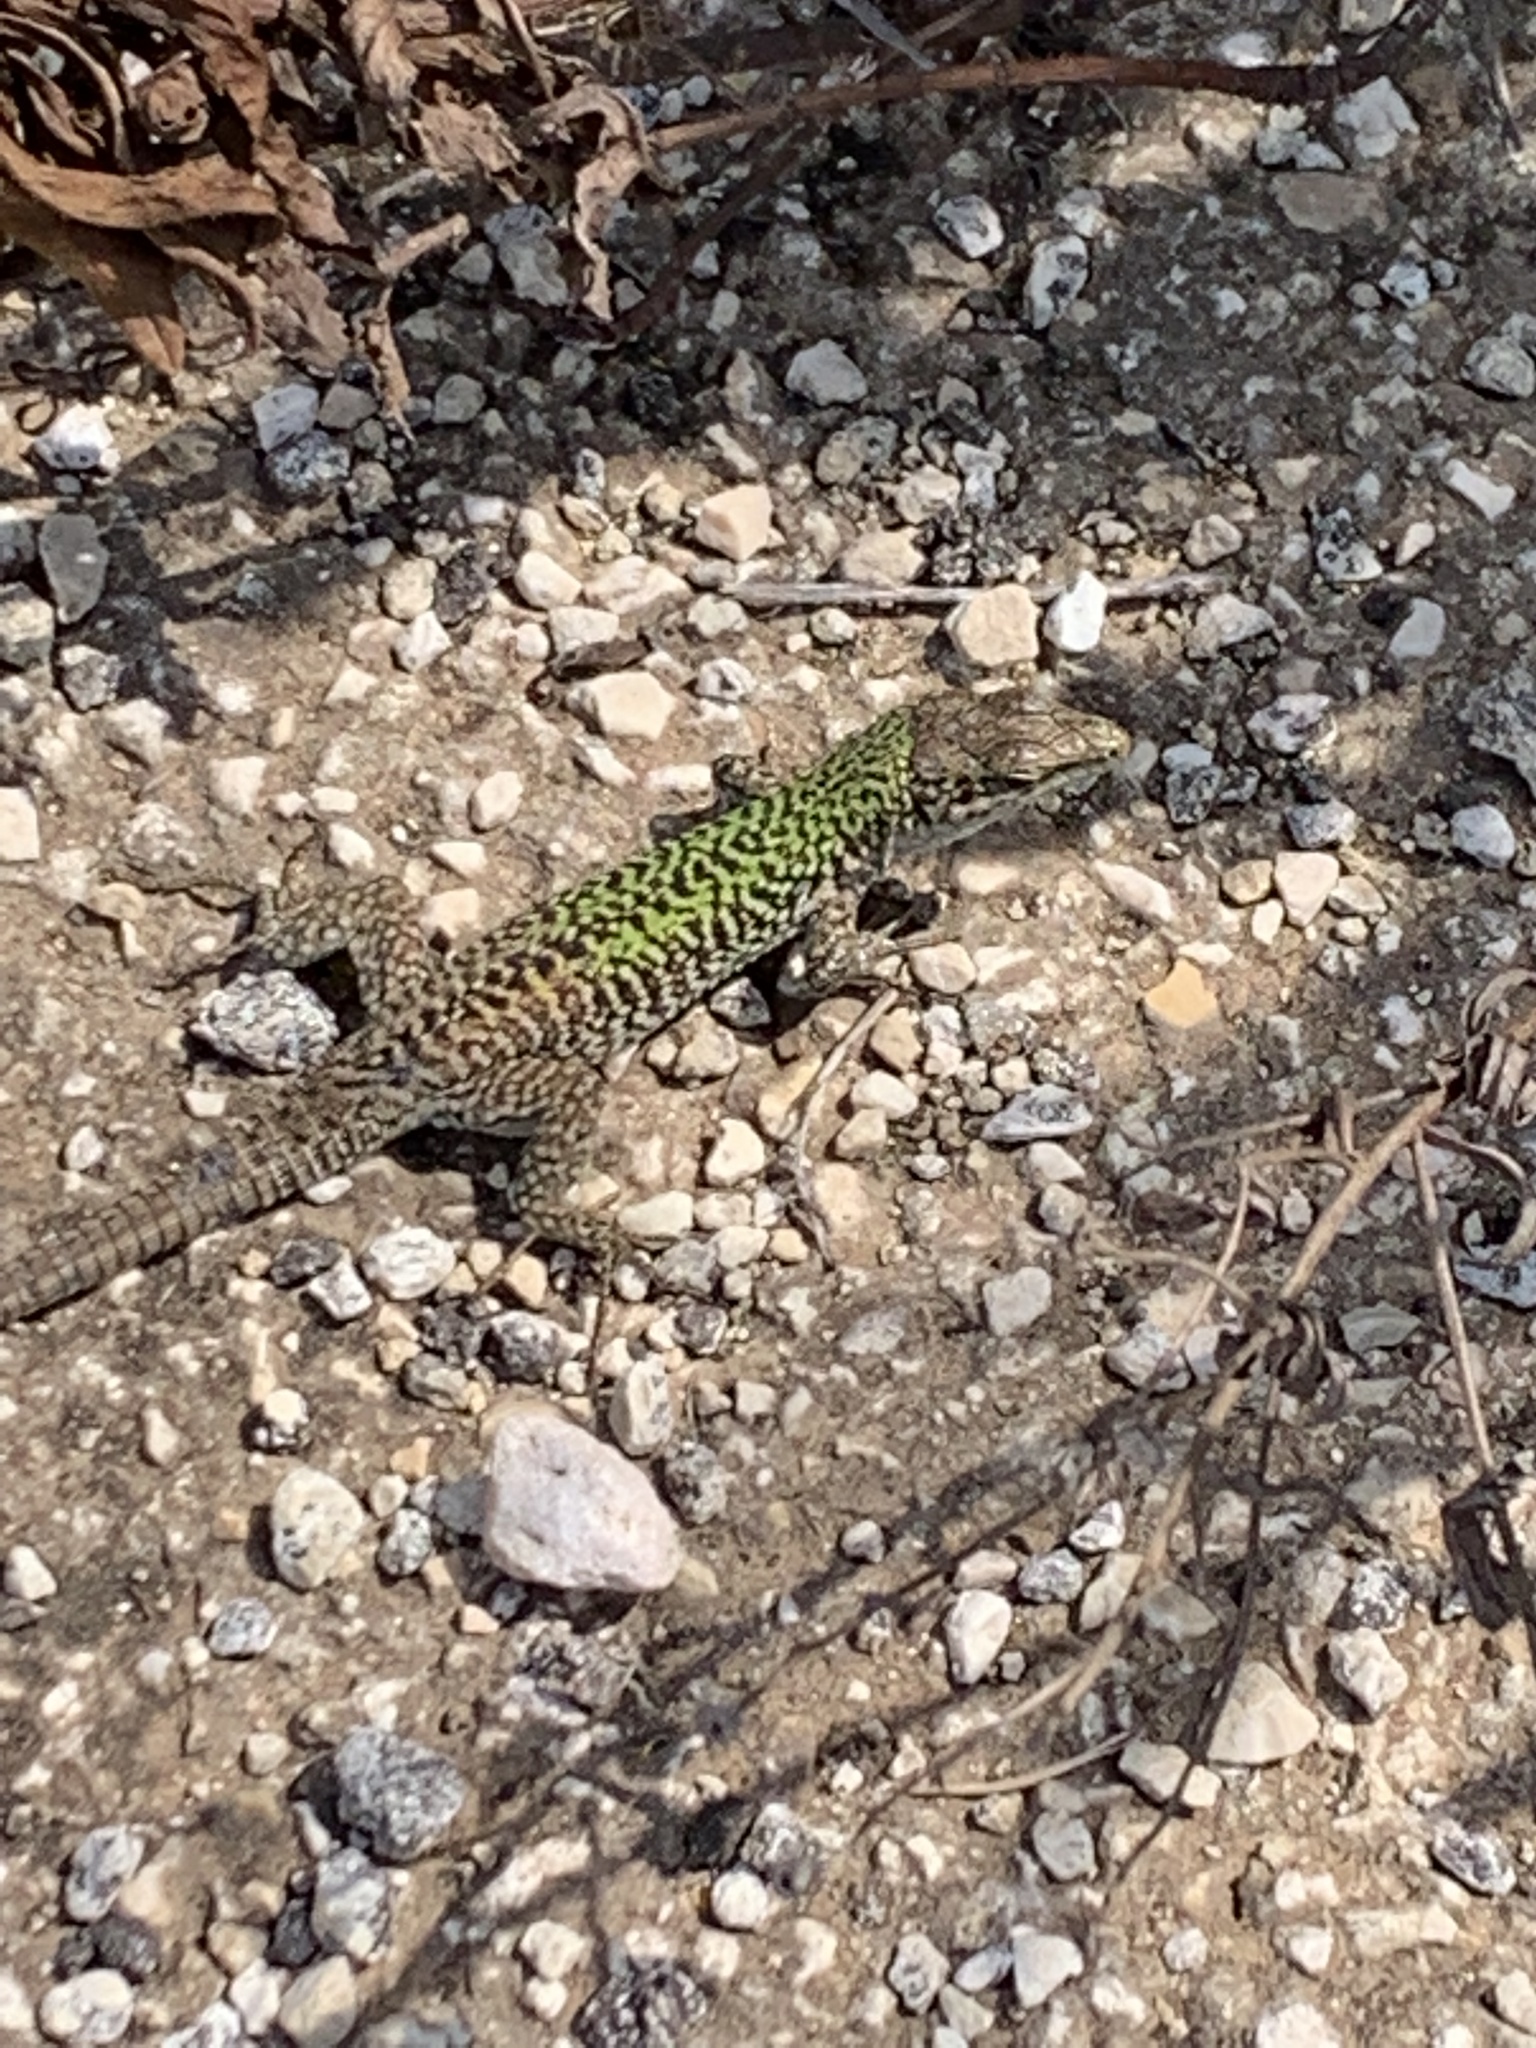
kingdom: Animalia
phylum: Chordata
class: Squamata
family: Lacertidae
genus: Podarcis
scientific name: Podarcis siculus
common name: Italian wall lizard
